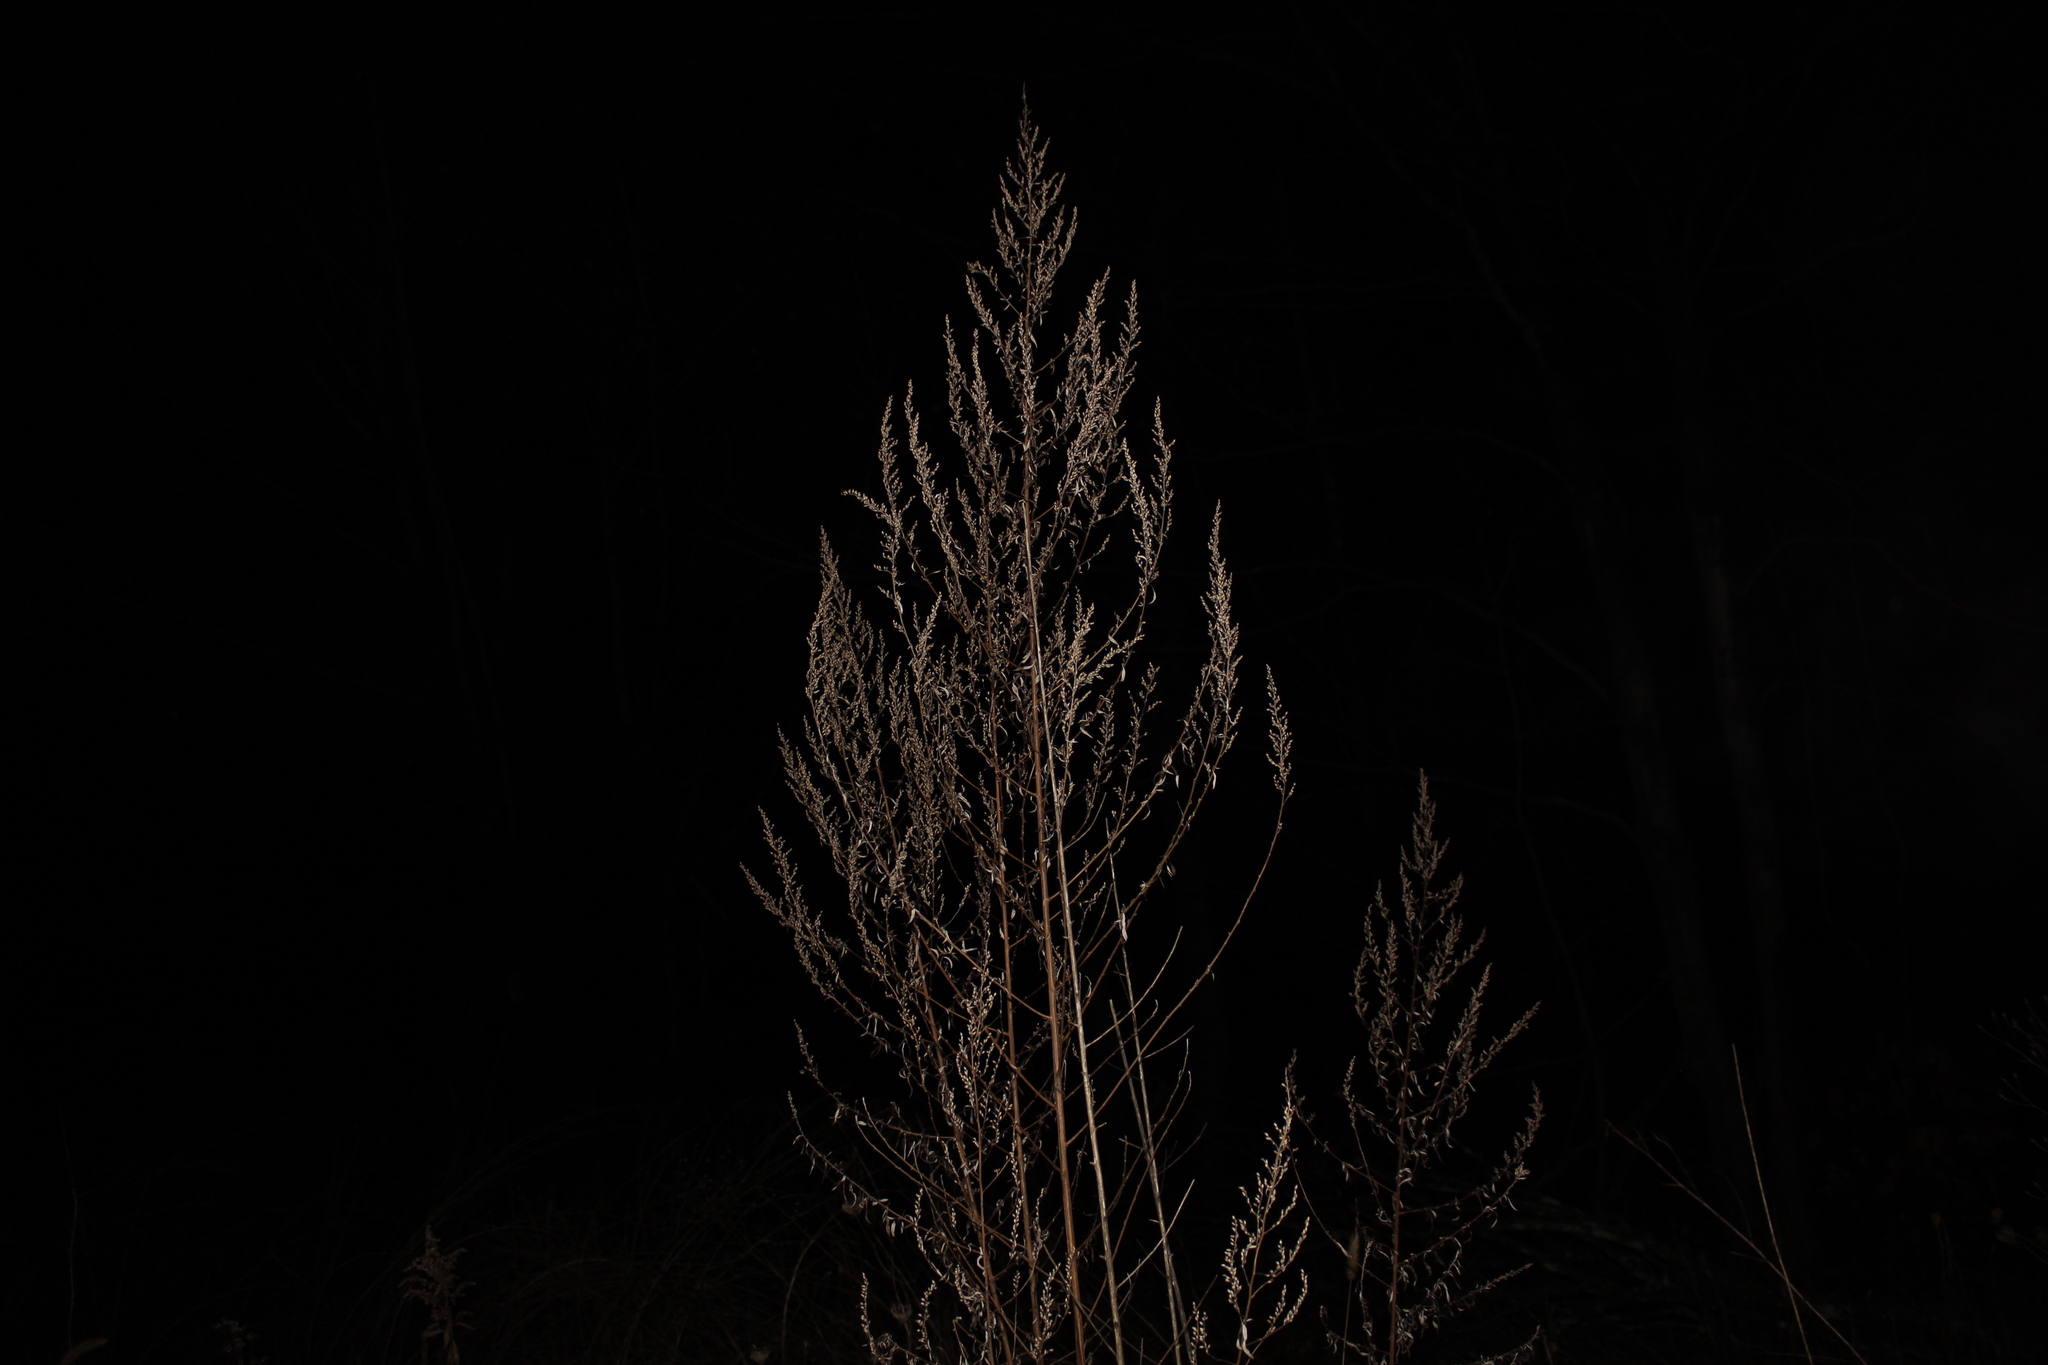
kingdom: Plantae
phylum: Tracheophyta
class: Magnoliopsida
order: Asterales
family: Asteraceae
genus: Artemisia
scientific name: Artemisia vulgaris
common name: Mugwort
